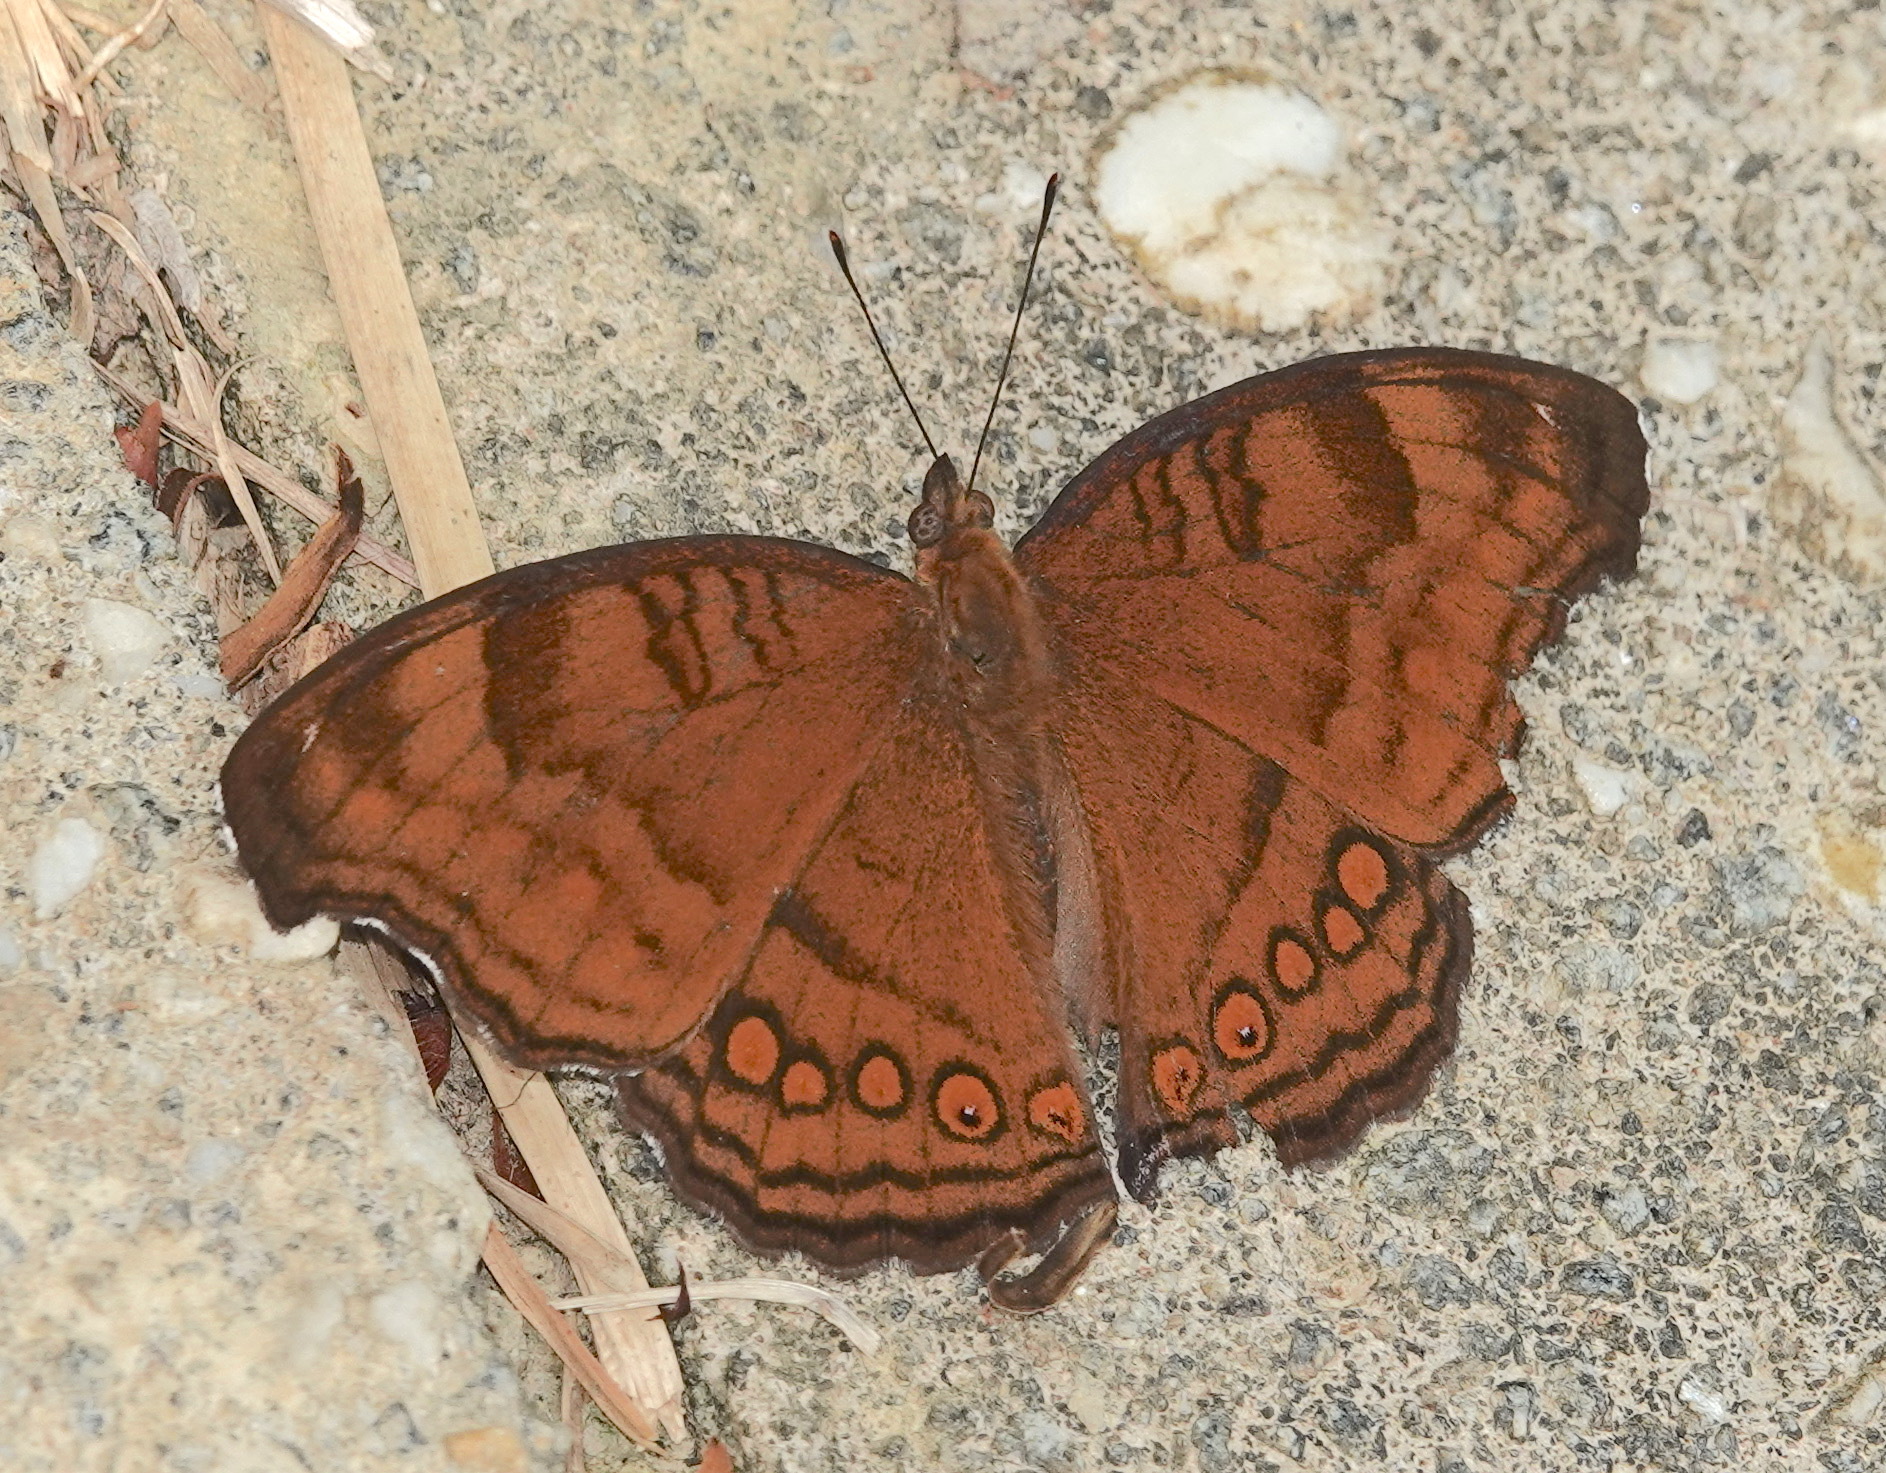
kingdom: Animalia
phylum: Arthropoda
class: Insecta
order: Lepidoptera
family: Nymphalidae
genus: Junonia
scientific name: Junonia hedonia
